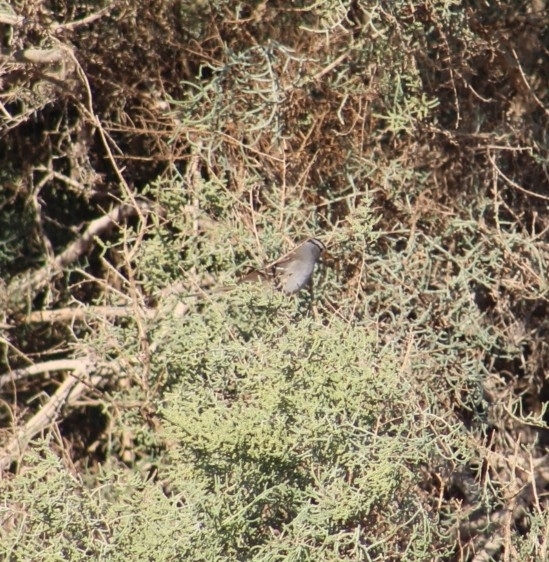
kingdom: Animalia
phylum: Chordata
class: Aves
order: Passeriformes
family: Passerellidae
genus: Zonotrichia
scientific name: Zonotrichia leucophrys
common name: White-crowned sparrow
